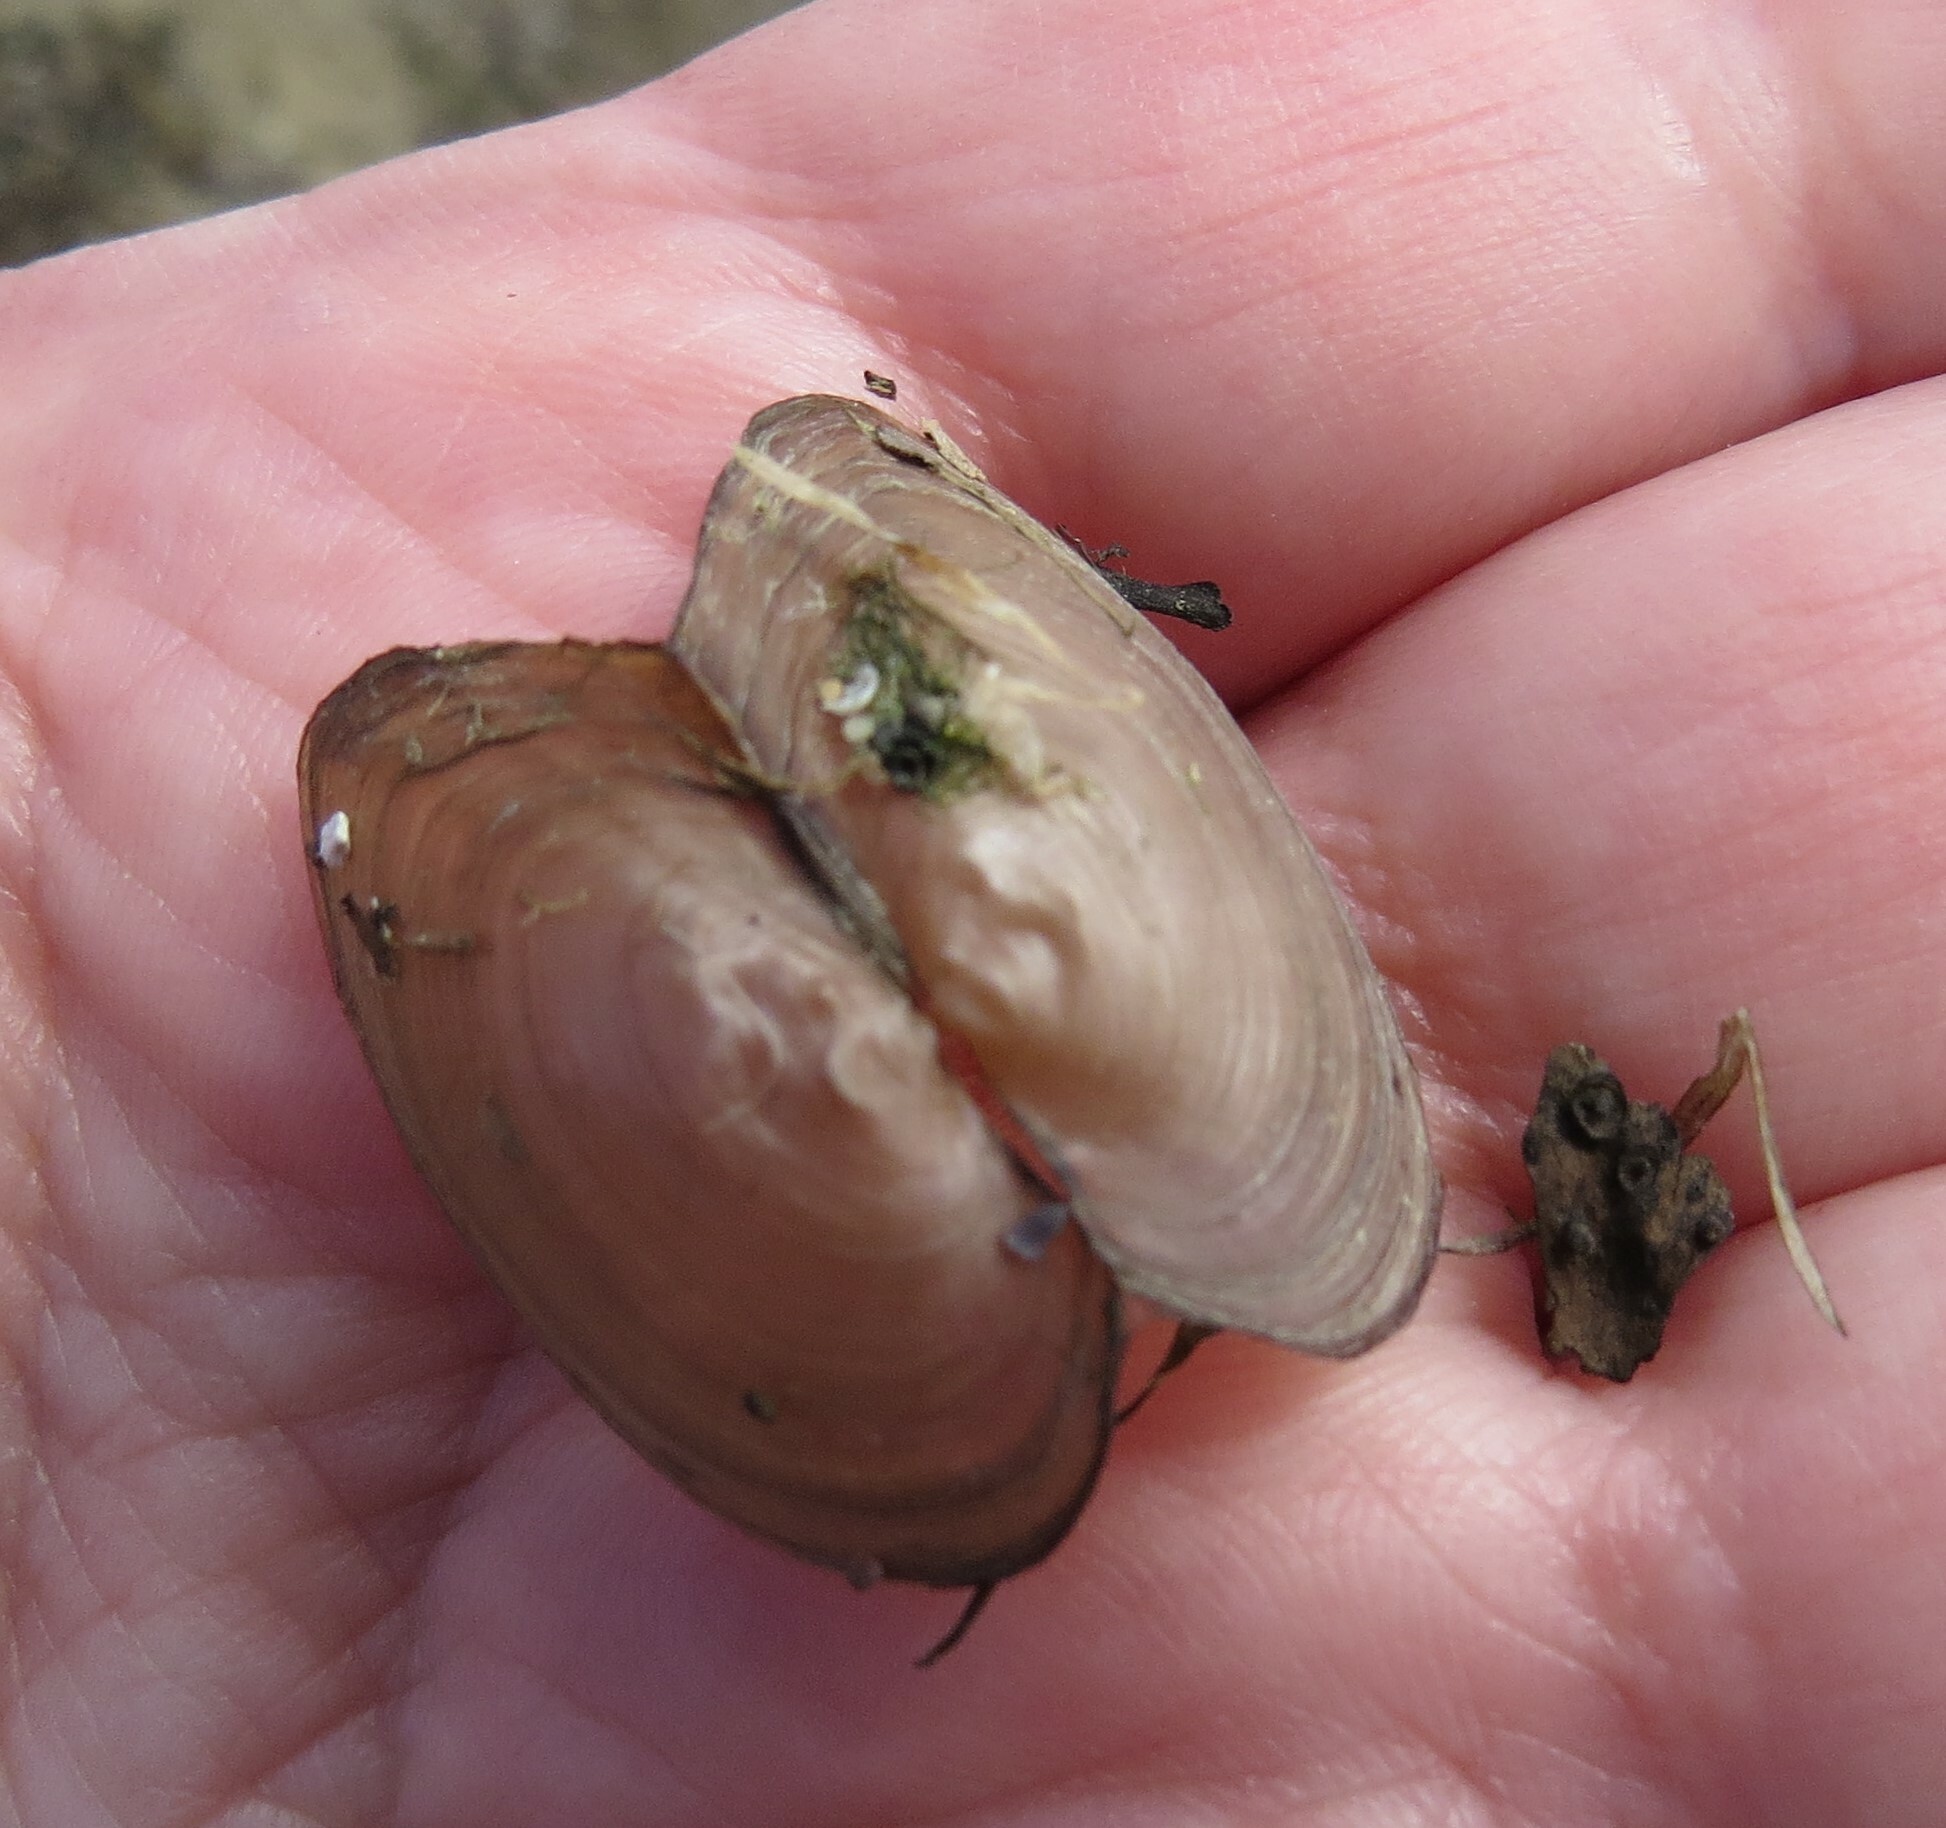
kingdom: Animalia
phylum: Mollusca
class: Bivalvia
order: Unionida
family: Unionidae
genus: Pyganodon
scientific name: Pyganodon grandis
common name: Giant floater
